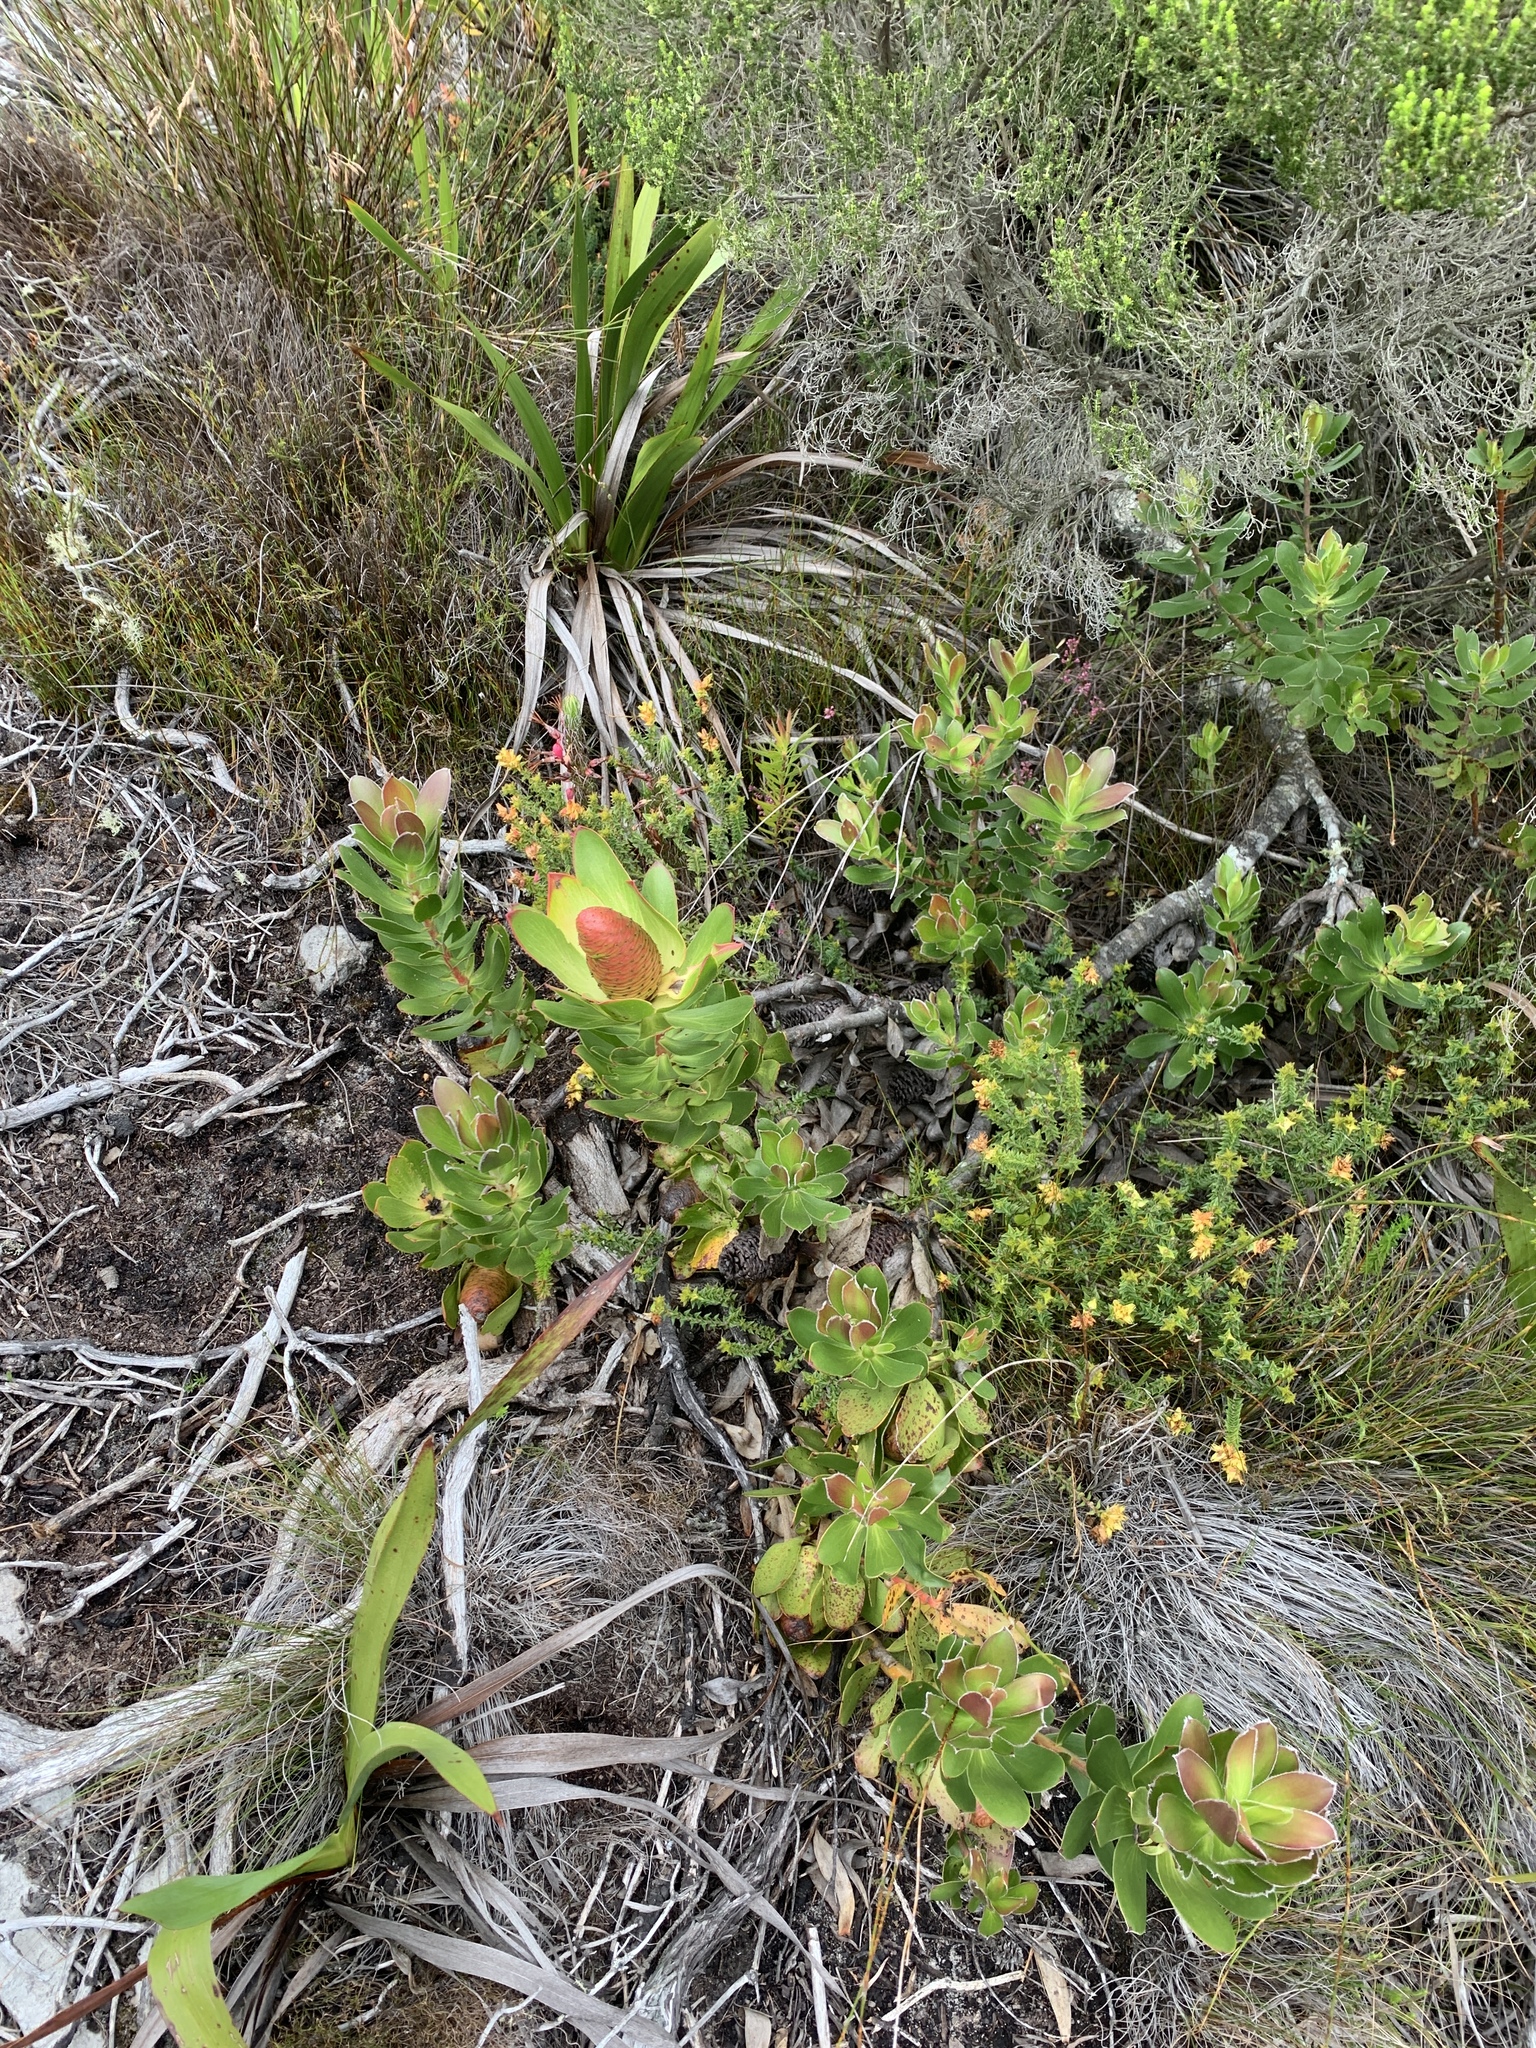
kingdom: Plantae
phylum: Tracheophyta
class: Magnoliopsida
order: Proteales
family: Proteaceae
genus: Leucadendron
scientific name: Leucadendron strobilinum
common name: Mountain rose
